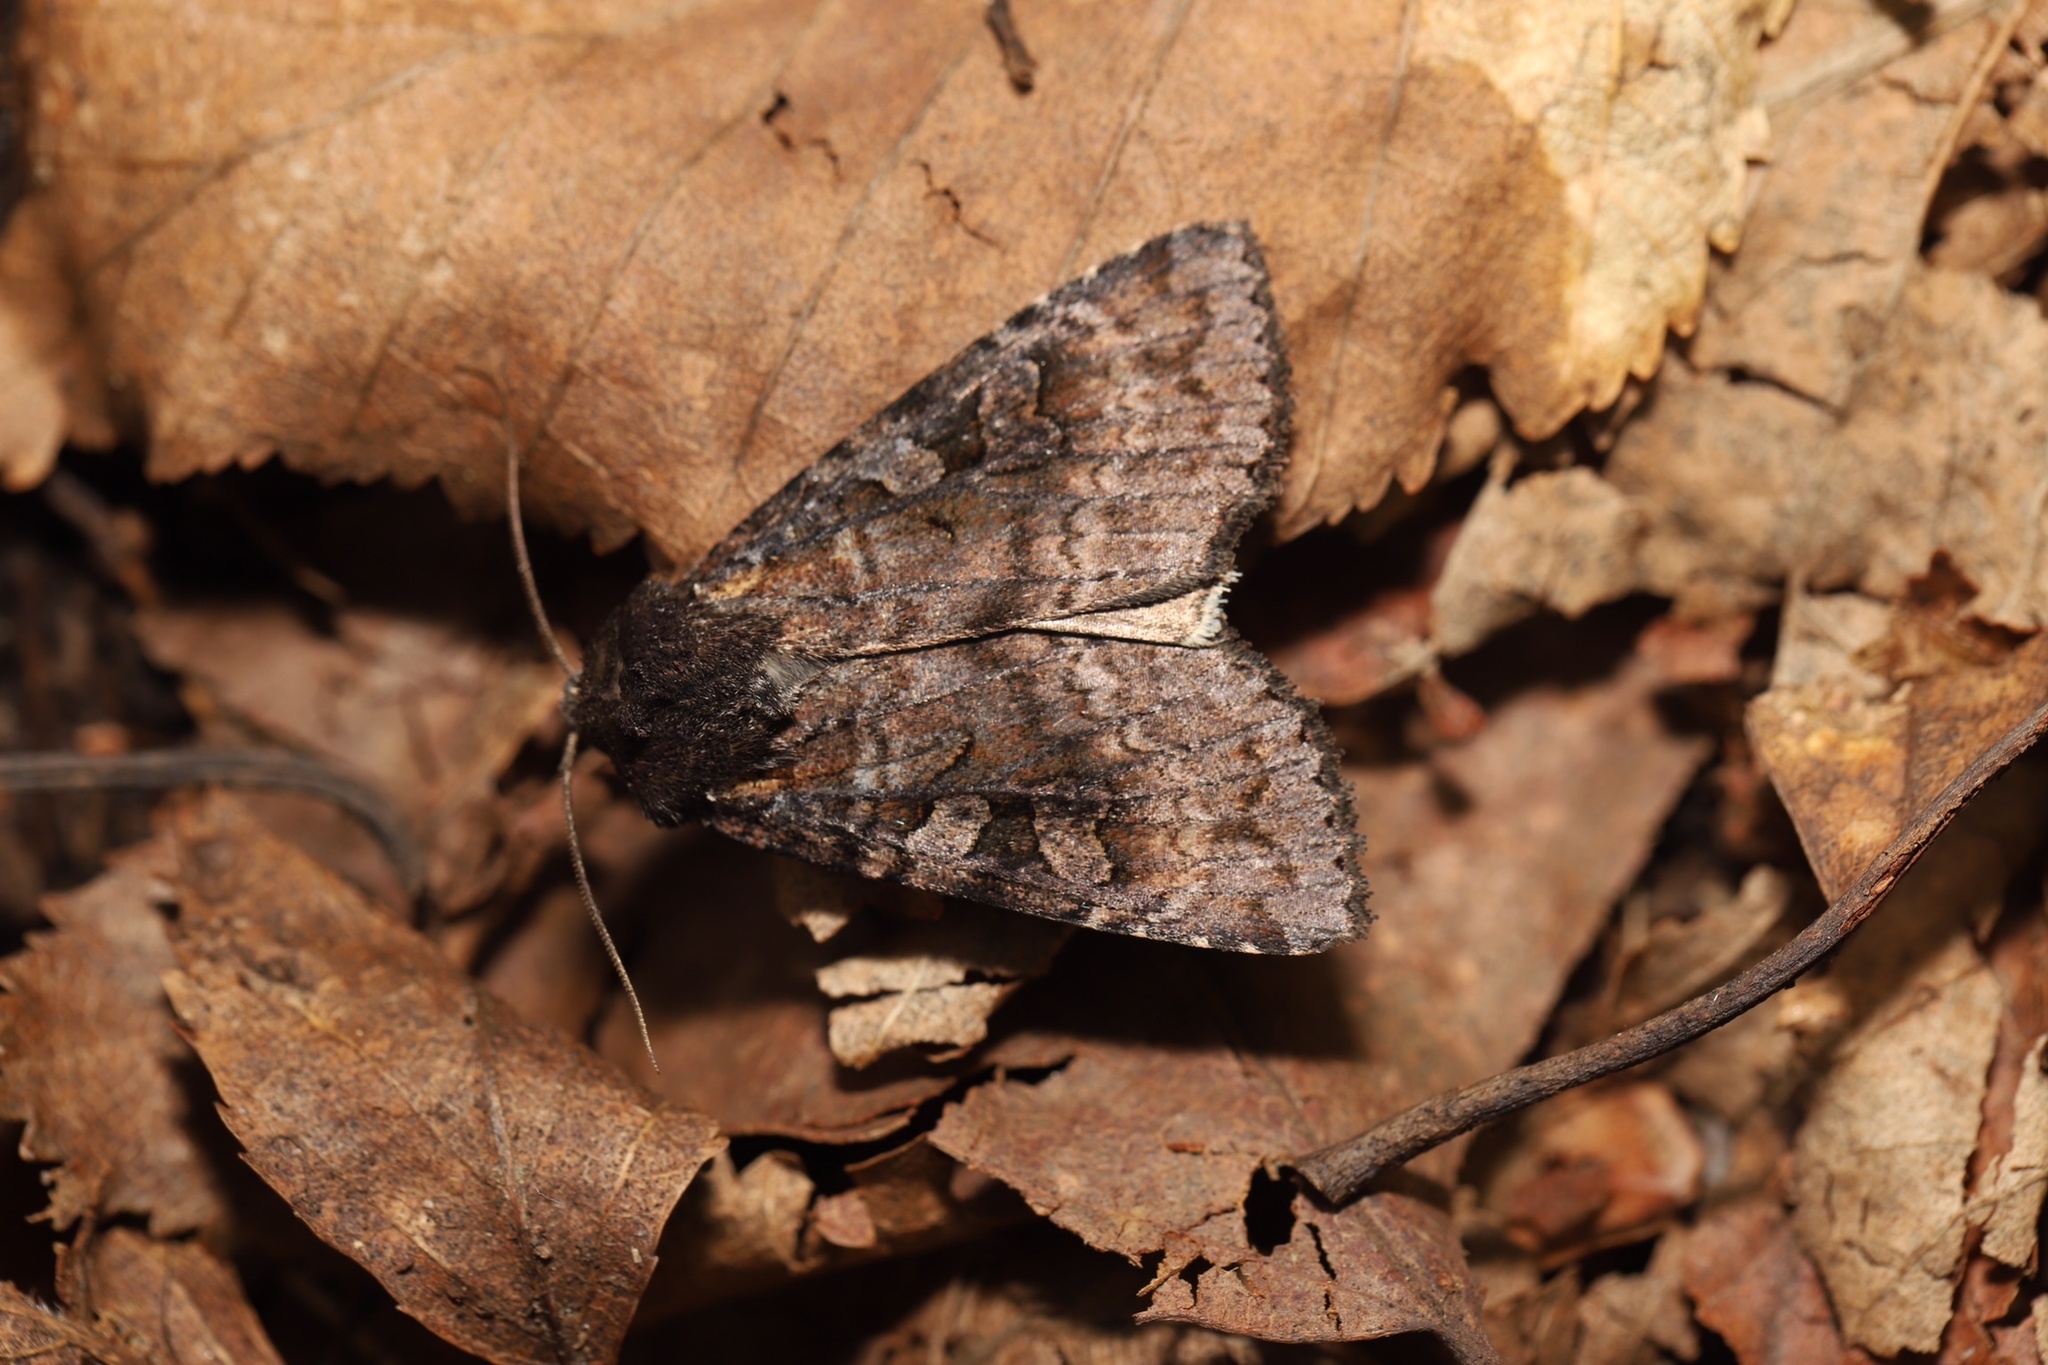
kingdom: Animalia
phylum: Arthropoda
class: Insecta
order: Lepidoptera
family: Noctuidae
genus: Eurois
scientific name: Eurois astricta
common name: Great brown dart
